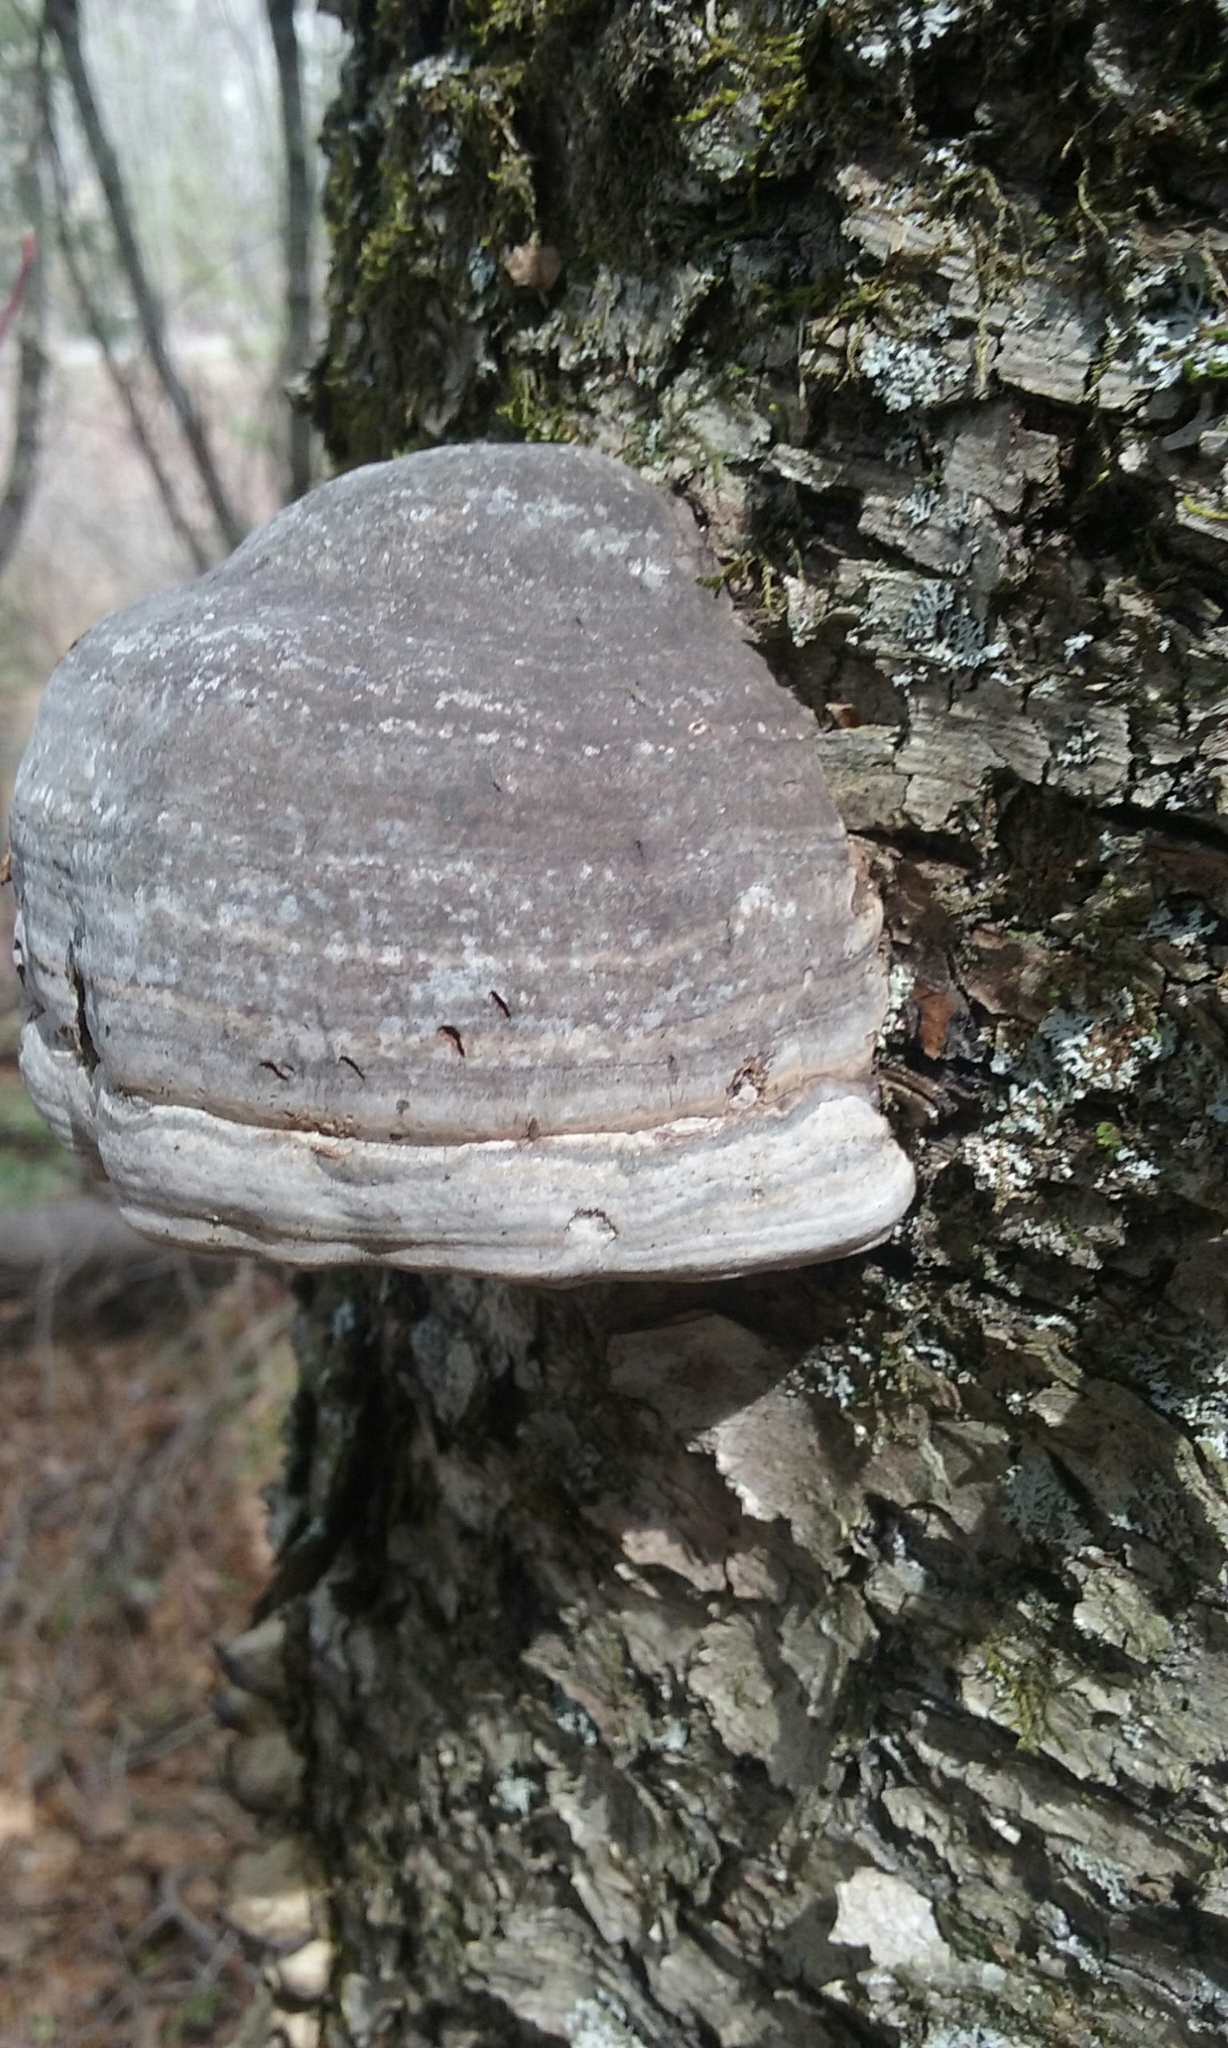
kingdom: Fungi
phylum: Basidiomycota
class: Agaricomycetes
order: Polyporales
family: Polyporaceae
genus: Fomes
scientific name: Fomes fomentarius
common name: Hoof fungus
